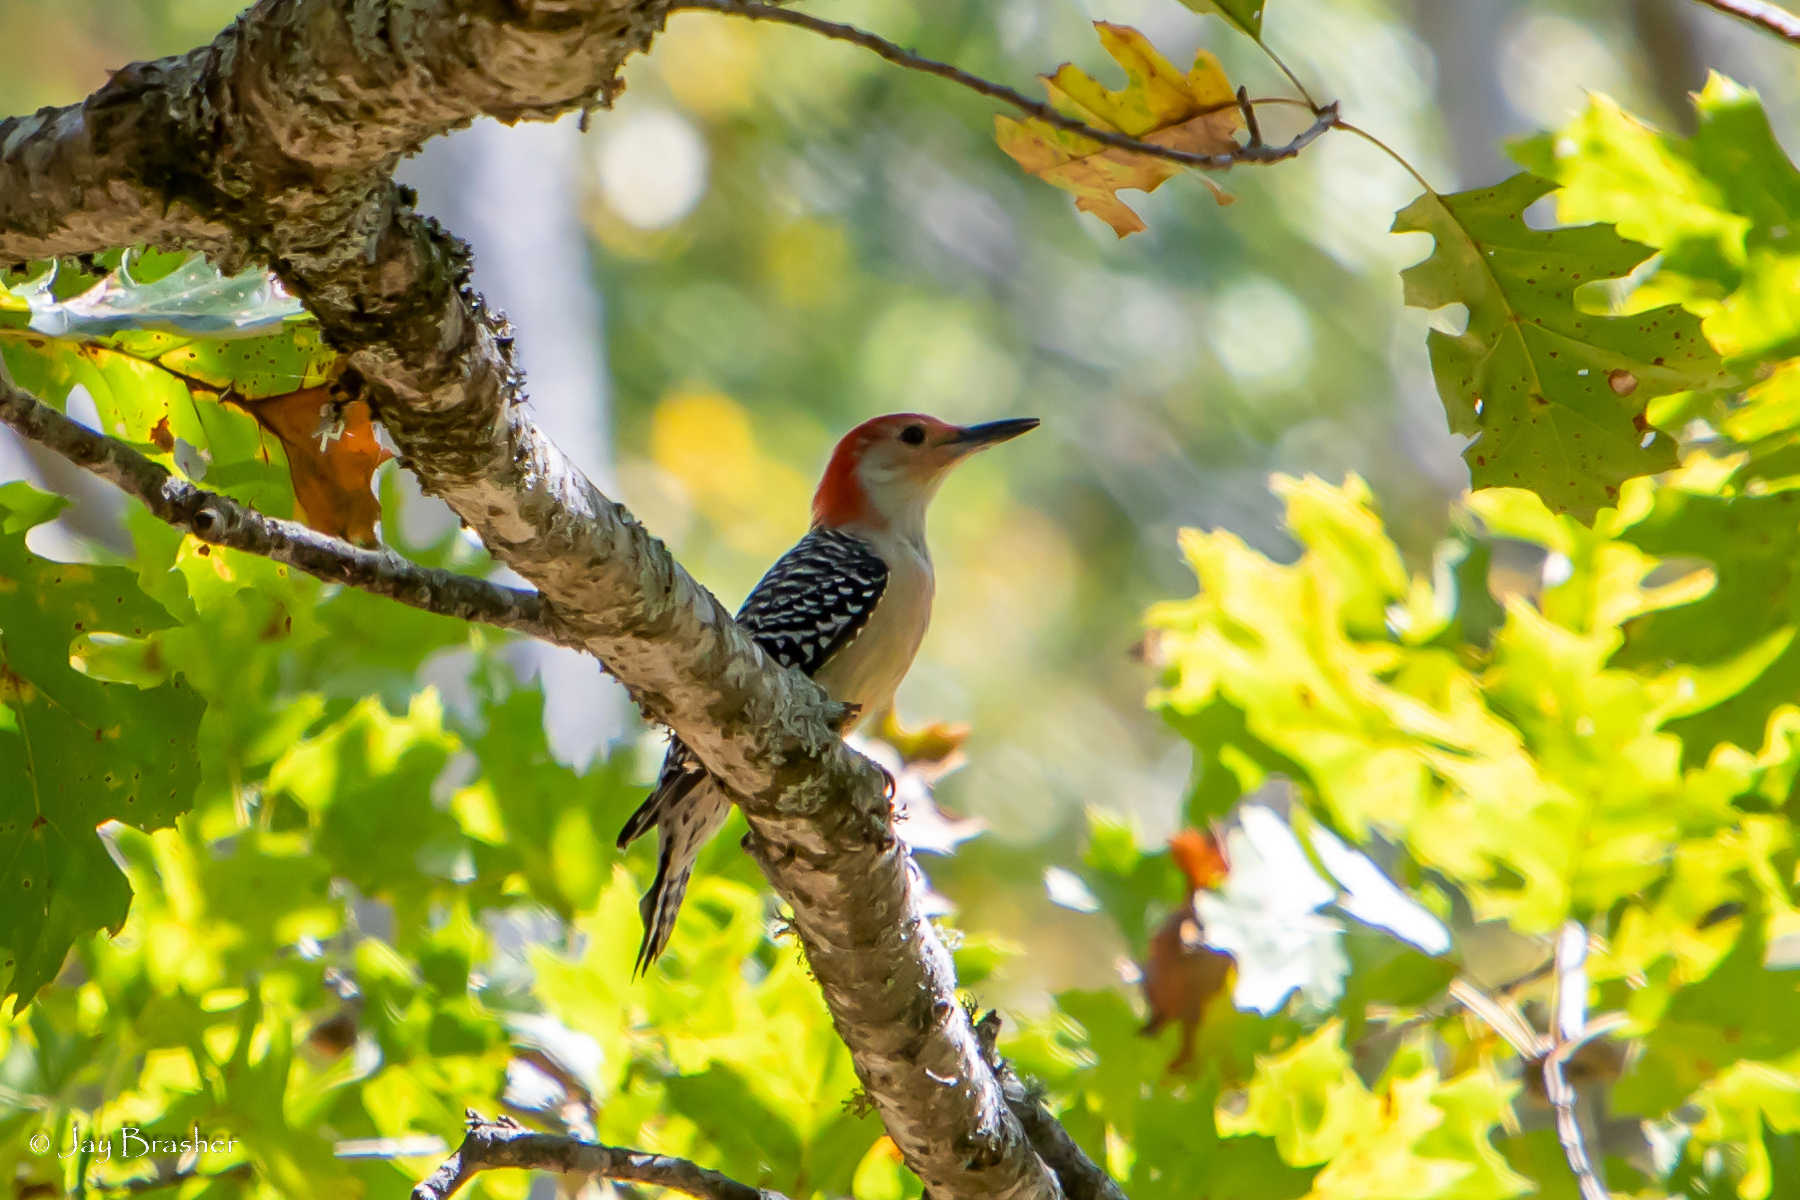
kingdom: Animalia
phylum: Chordata
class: Aves
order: Piciformes
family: Picidae
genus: Melanerpes
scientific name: Melanerpes carolinus
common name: Red-bellied woodpecker
